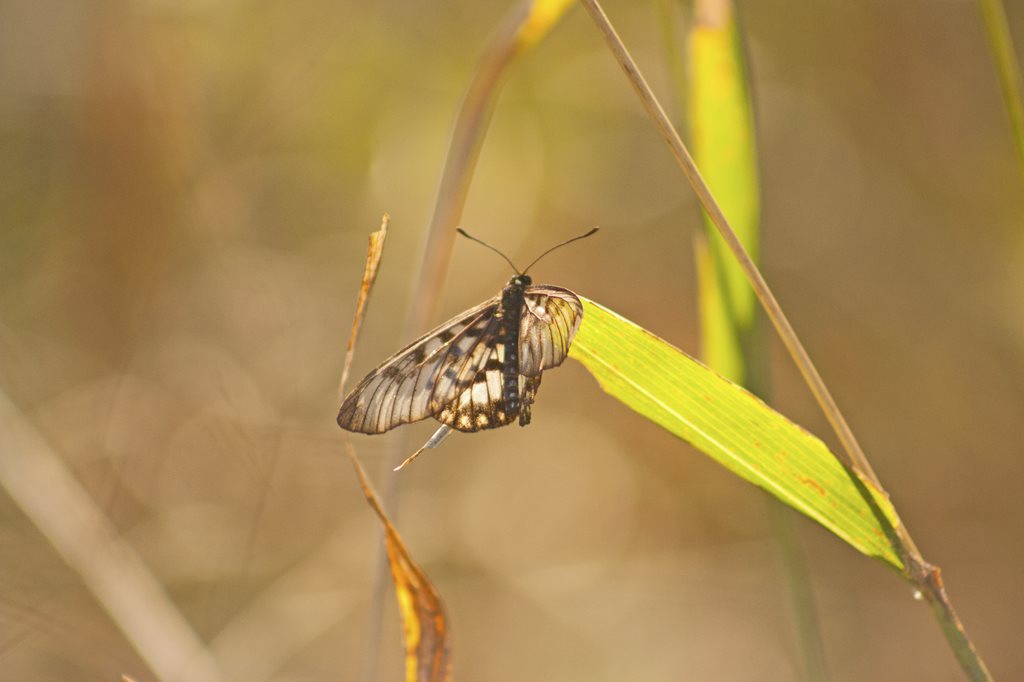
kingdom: Animalia
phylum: Arthropoda
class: Insecta
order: Lepidoptera
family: Nymphalidae
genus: Acraea
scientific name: Acraea andromacha
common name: Glasswing
